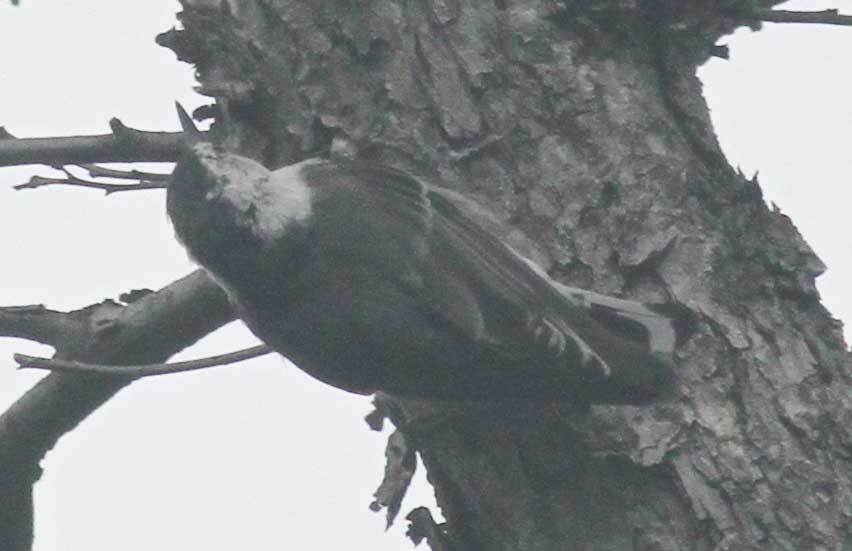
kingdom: Animalia
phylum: Chordata
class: Aves
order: Passeriformes
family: Sittidae
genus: Sitta
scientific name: Sitta carolinensis
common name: White-breasted nuthatch
